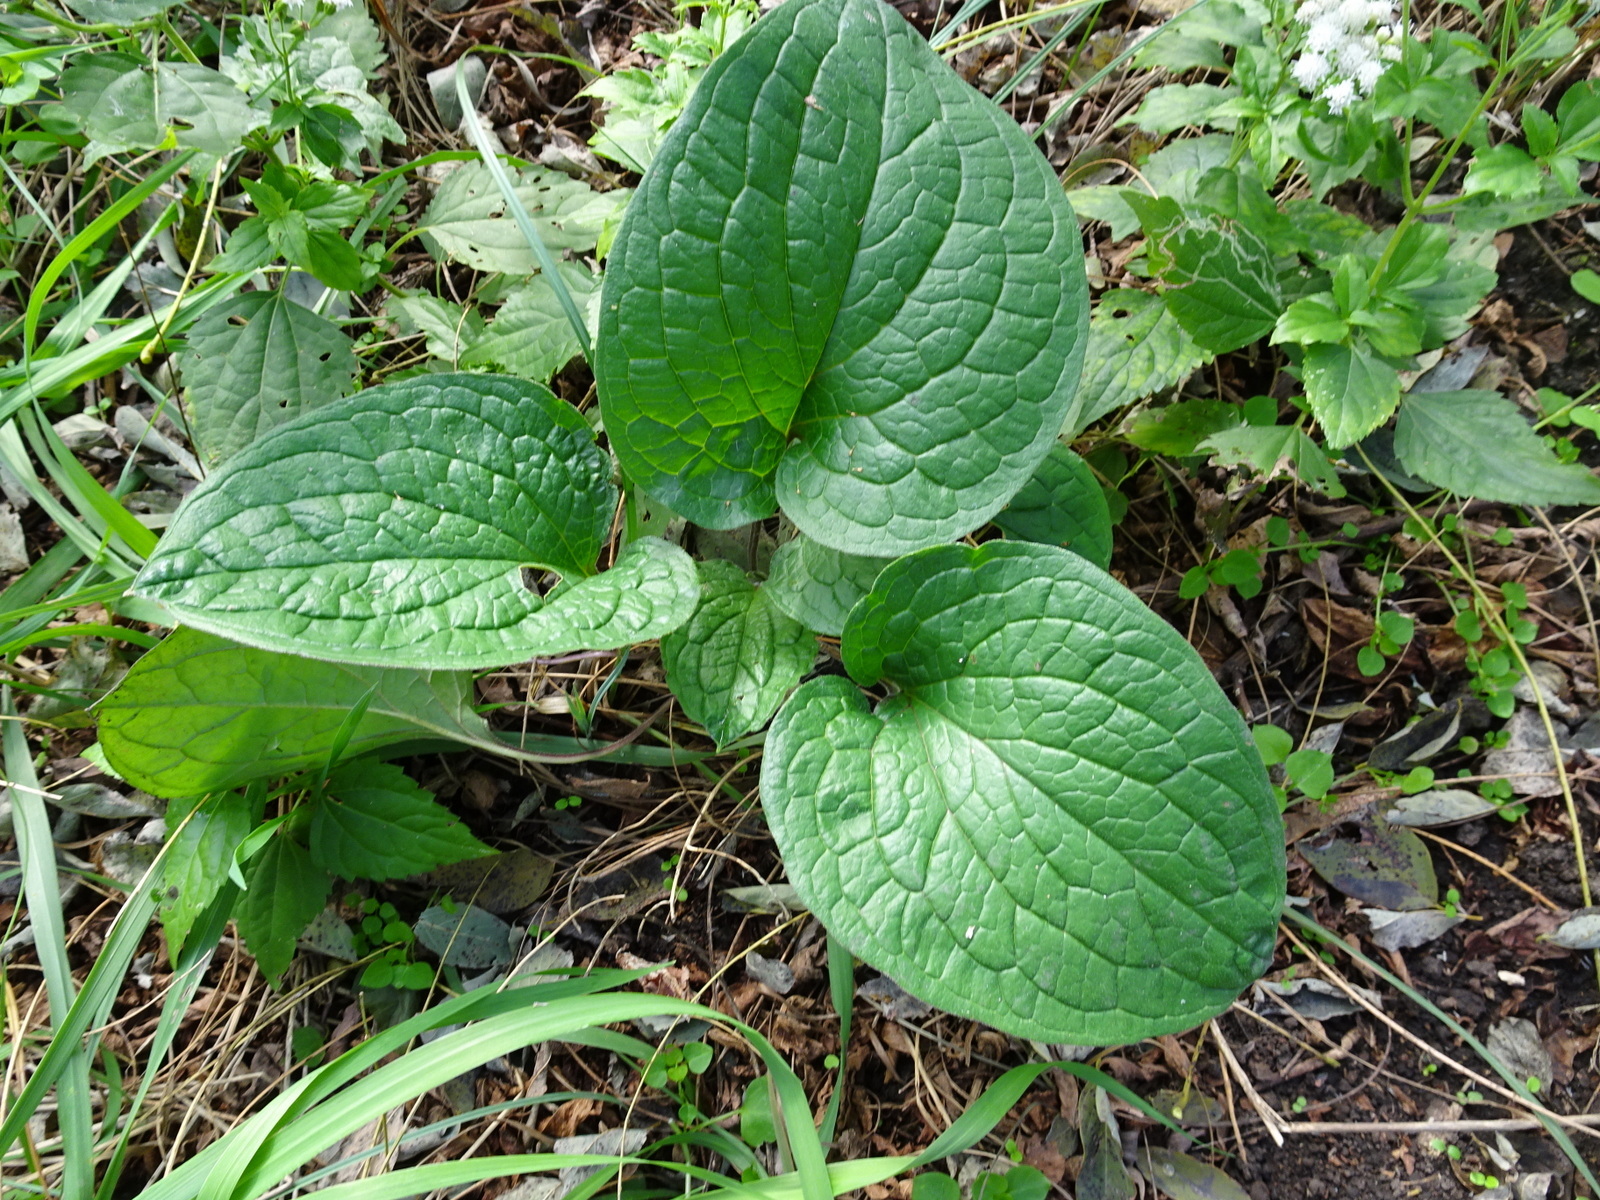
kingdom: Plantae
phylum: Tracheophyta
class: Magnoliopsida
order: Boraginales
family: Boraginaceae
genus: Hackelia
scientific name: Hackelia virginiana
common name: Beggar's-lice
